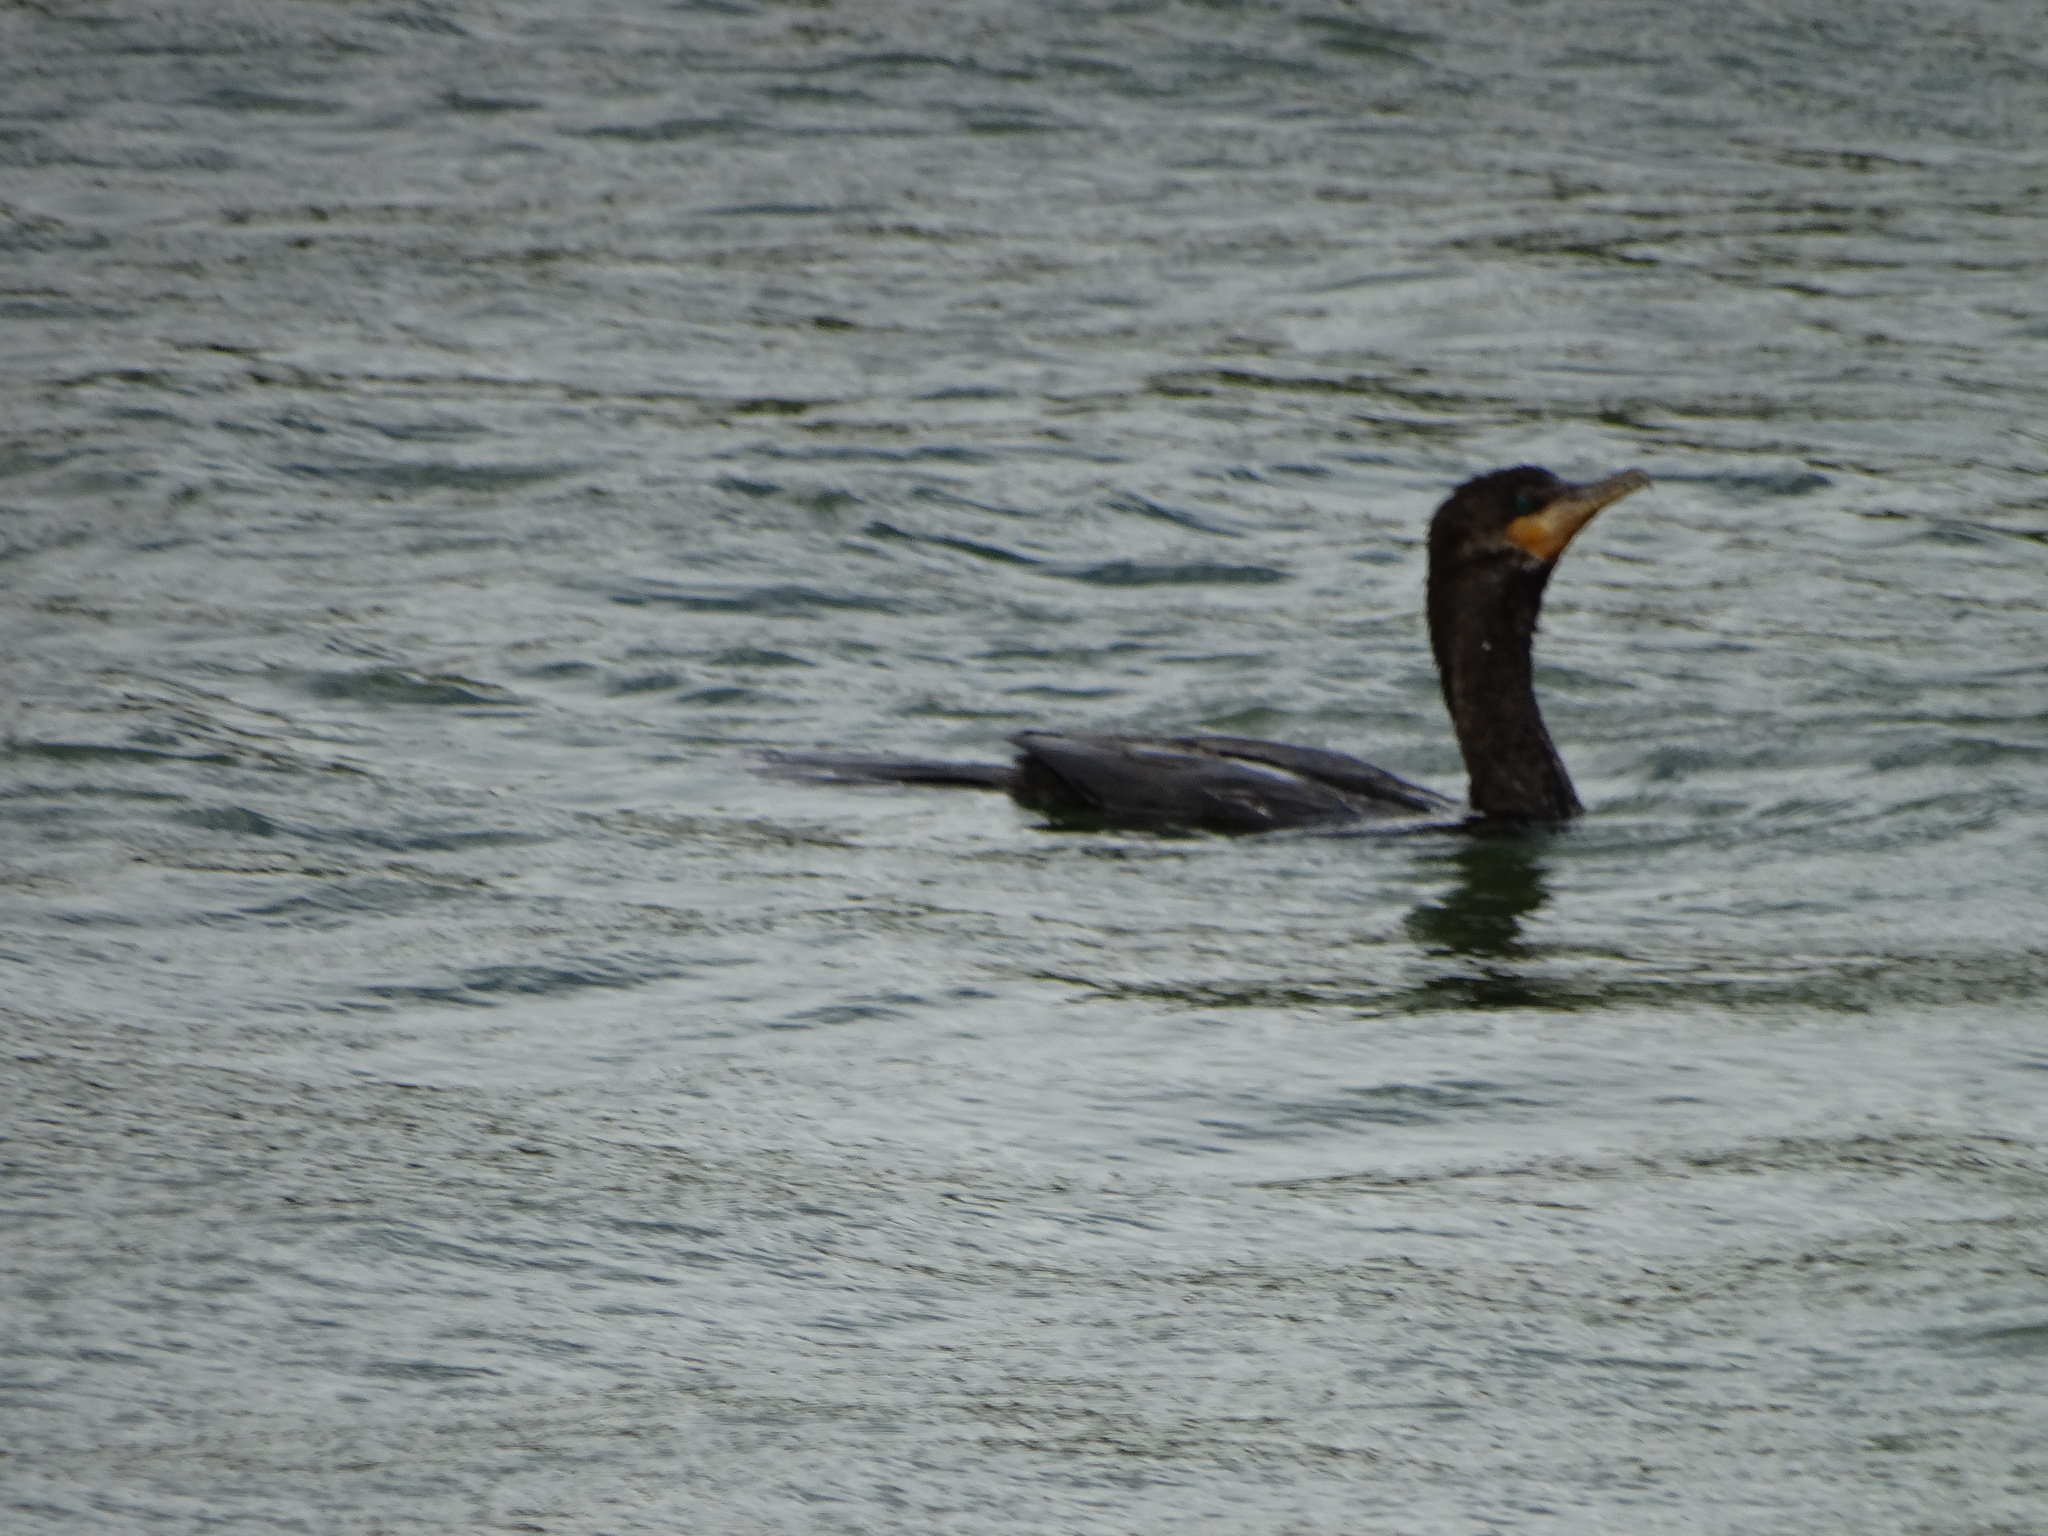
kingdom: Animalia
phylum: Chordata
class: Aves
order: Suliformes
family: Phalacrocoracidae
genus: Phalacrocorax
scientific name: Phalacrocorax brasilianus
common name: Neotropic cormorant
